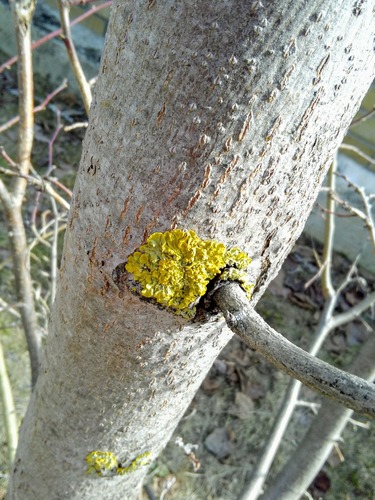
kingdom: Fungi
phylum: Ascomycota
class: Lecanoromycetes
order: Teloschistales
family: Teloschistaceae
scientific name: Teloschistaceae
